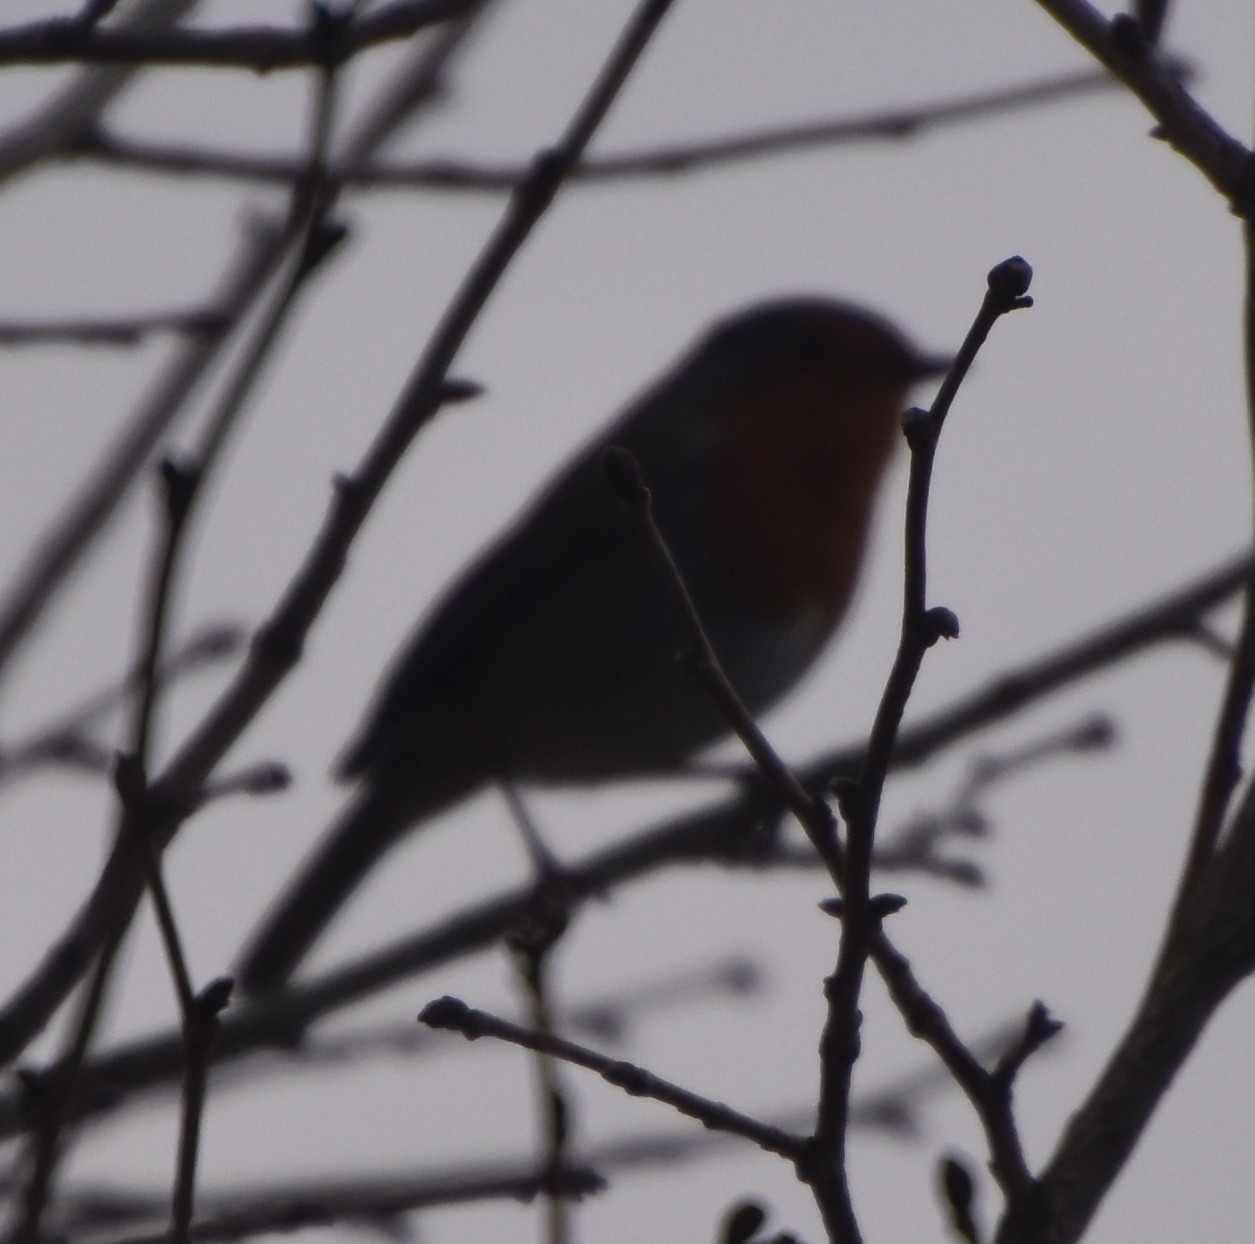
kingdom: Animalia
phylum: Chordata
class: Aves
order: Passeriformes
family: Muscicapidae
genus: Erithacus
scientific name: Erithacus rubecula
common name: European robin
